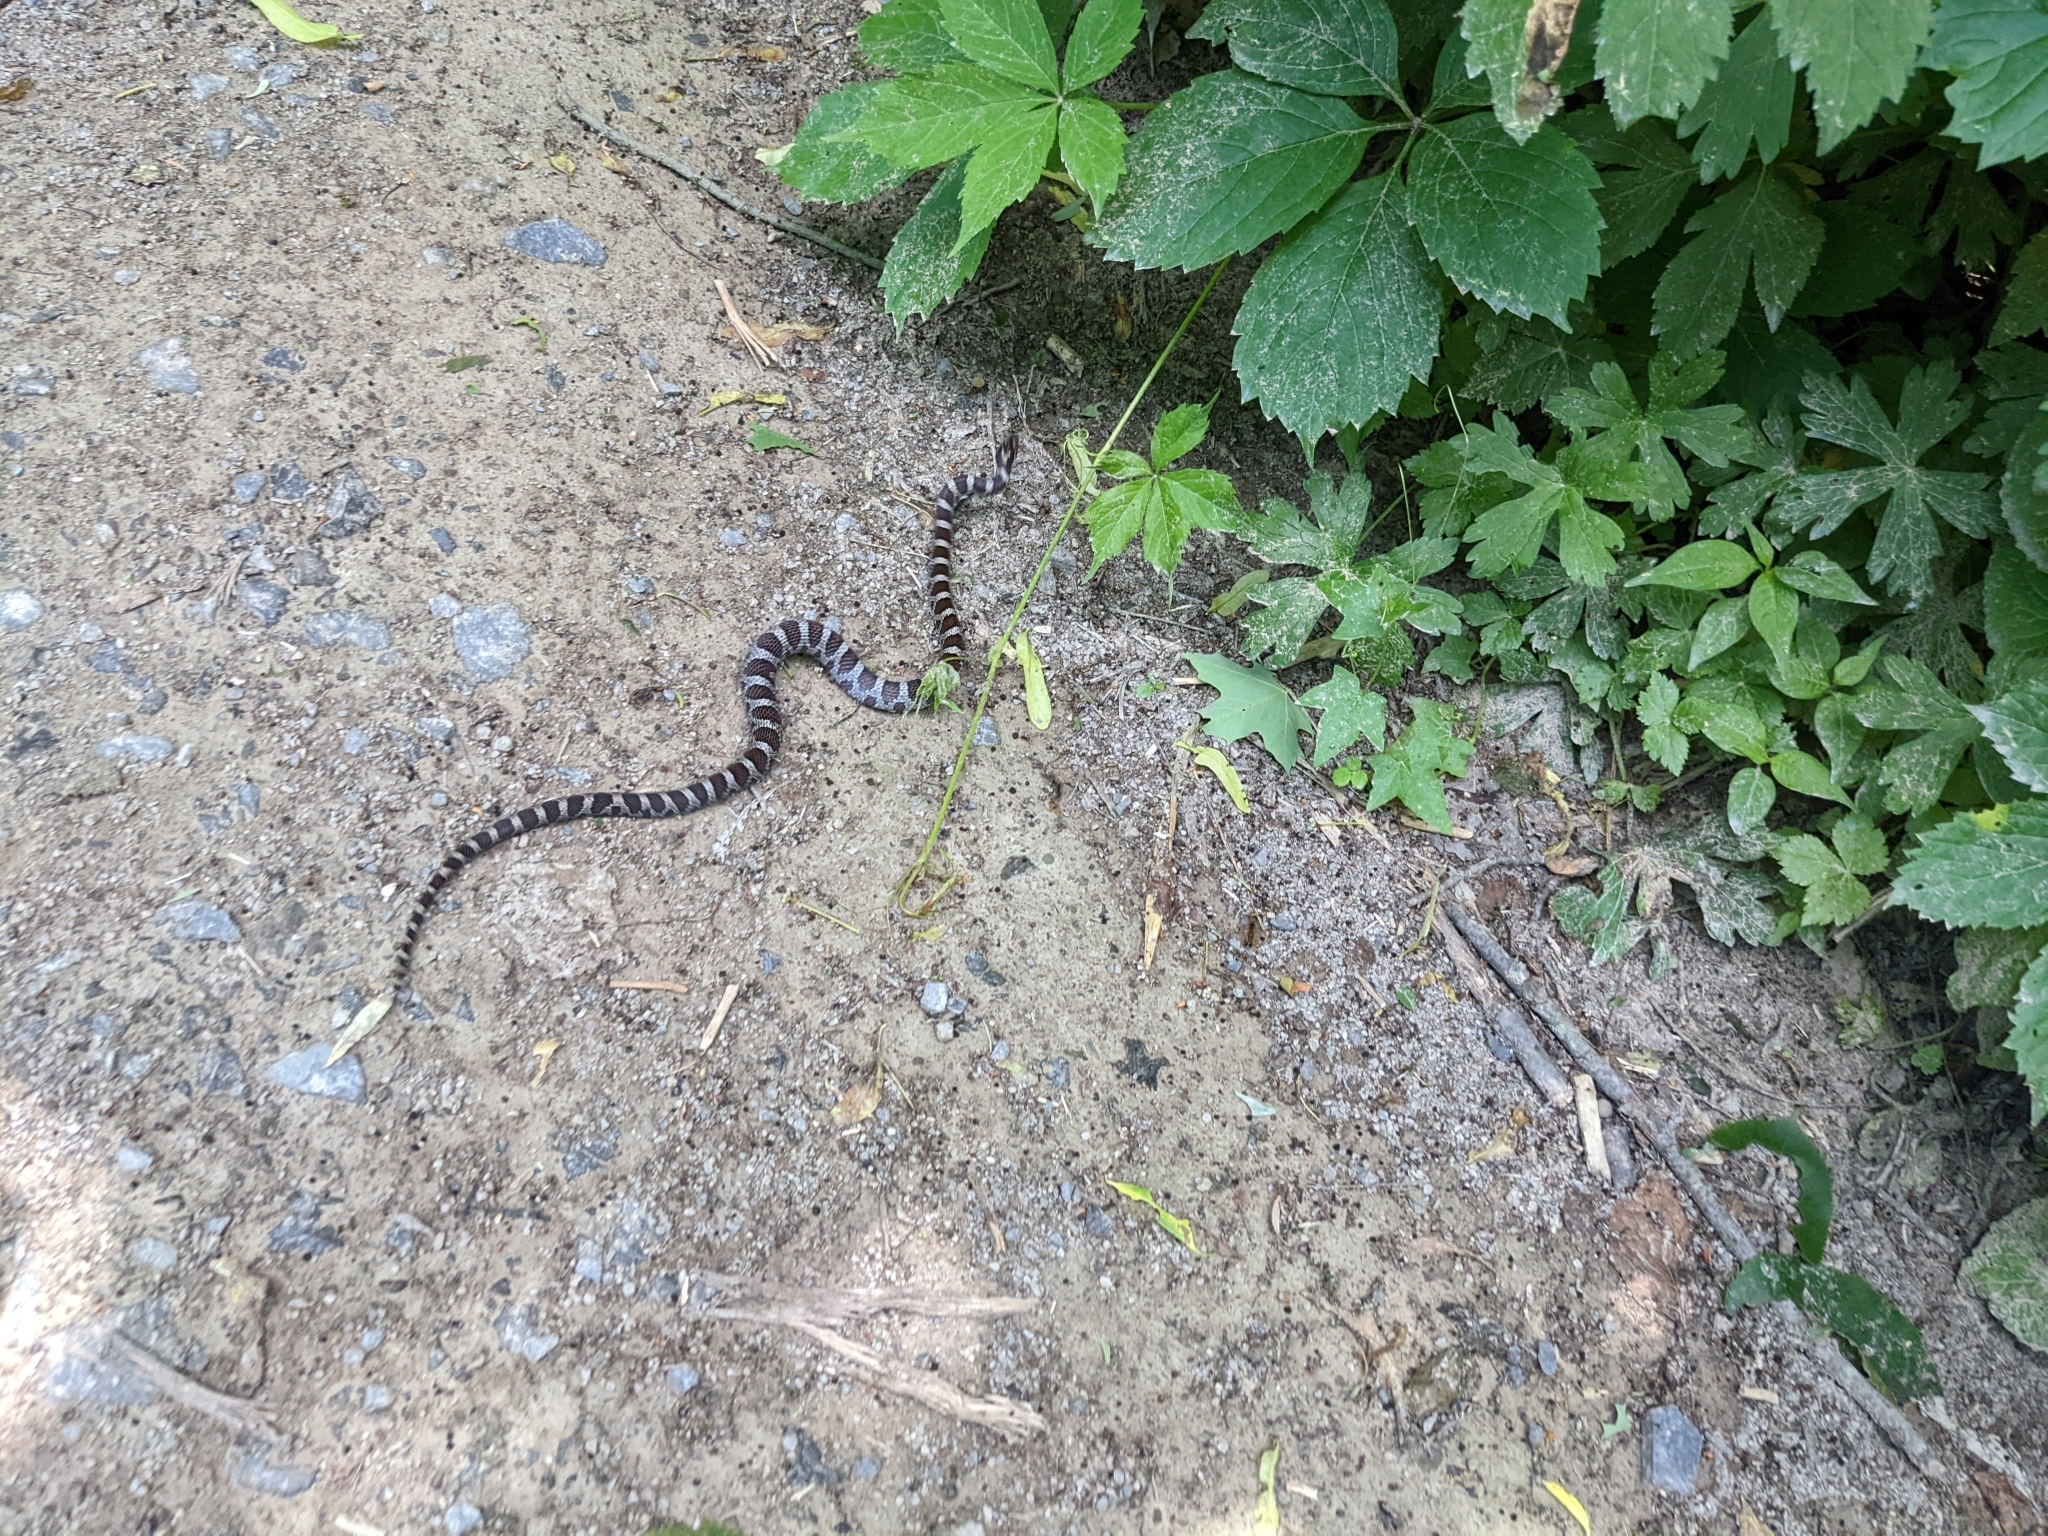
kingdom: Animalia
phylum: Chordata
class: Squamata
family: Colubridae
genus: Lampropeltis
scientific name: Lampropeltis triangulum
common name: Eastern milksnake
